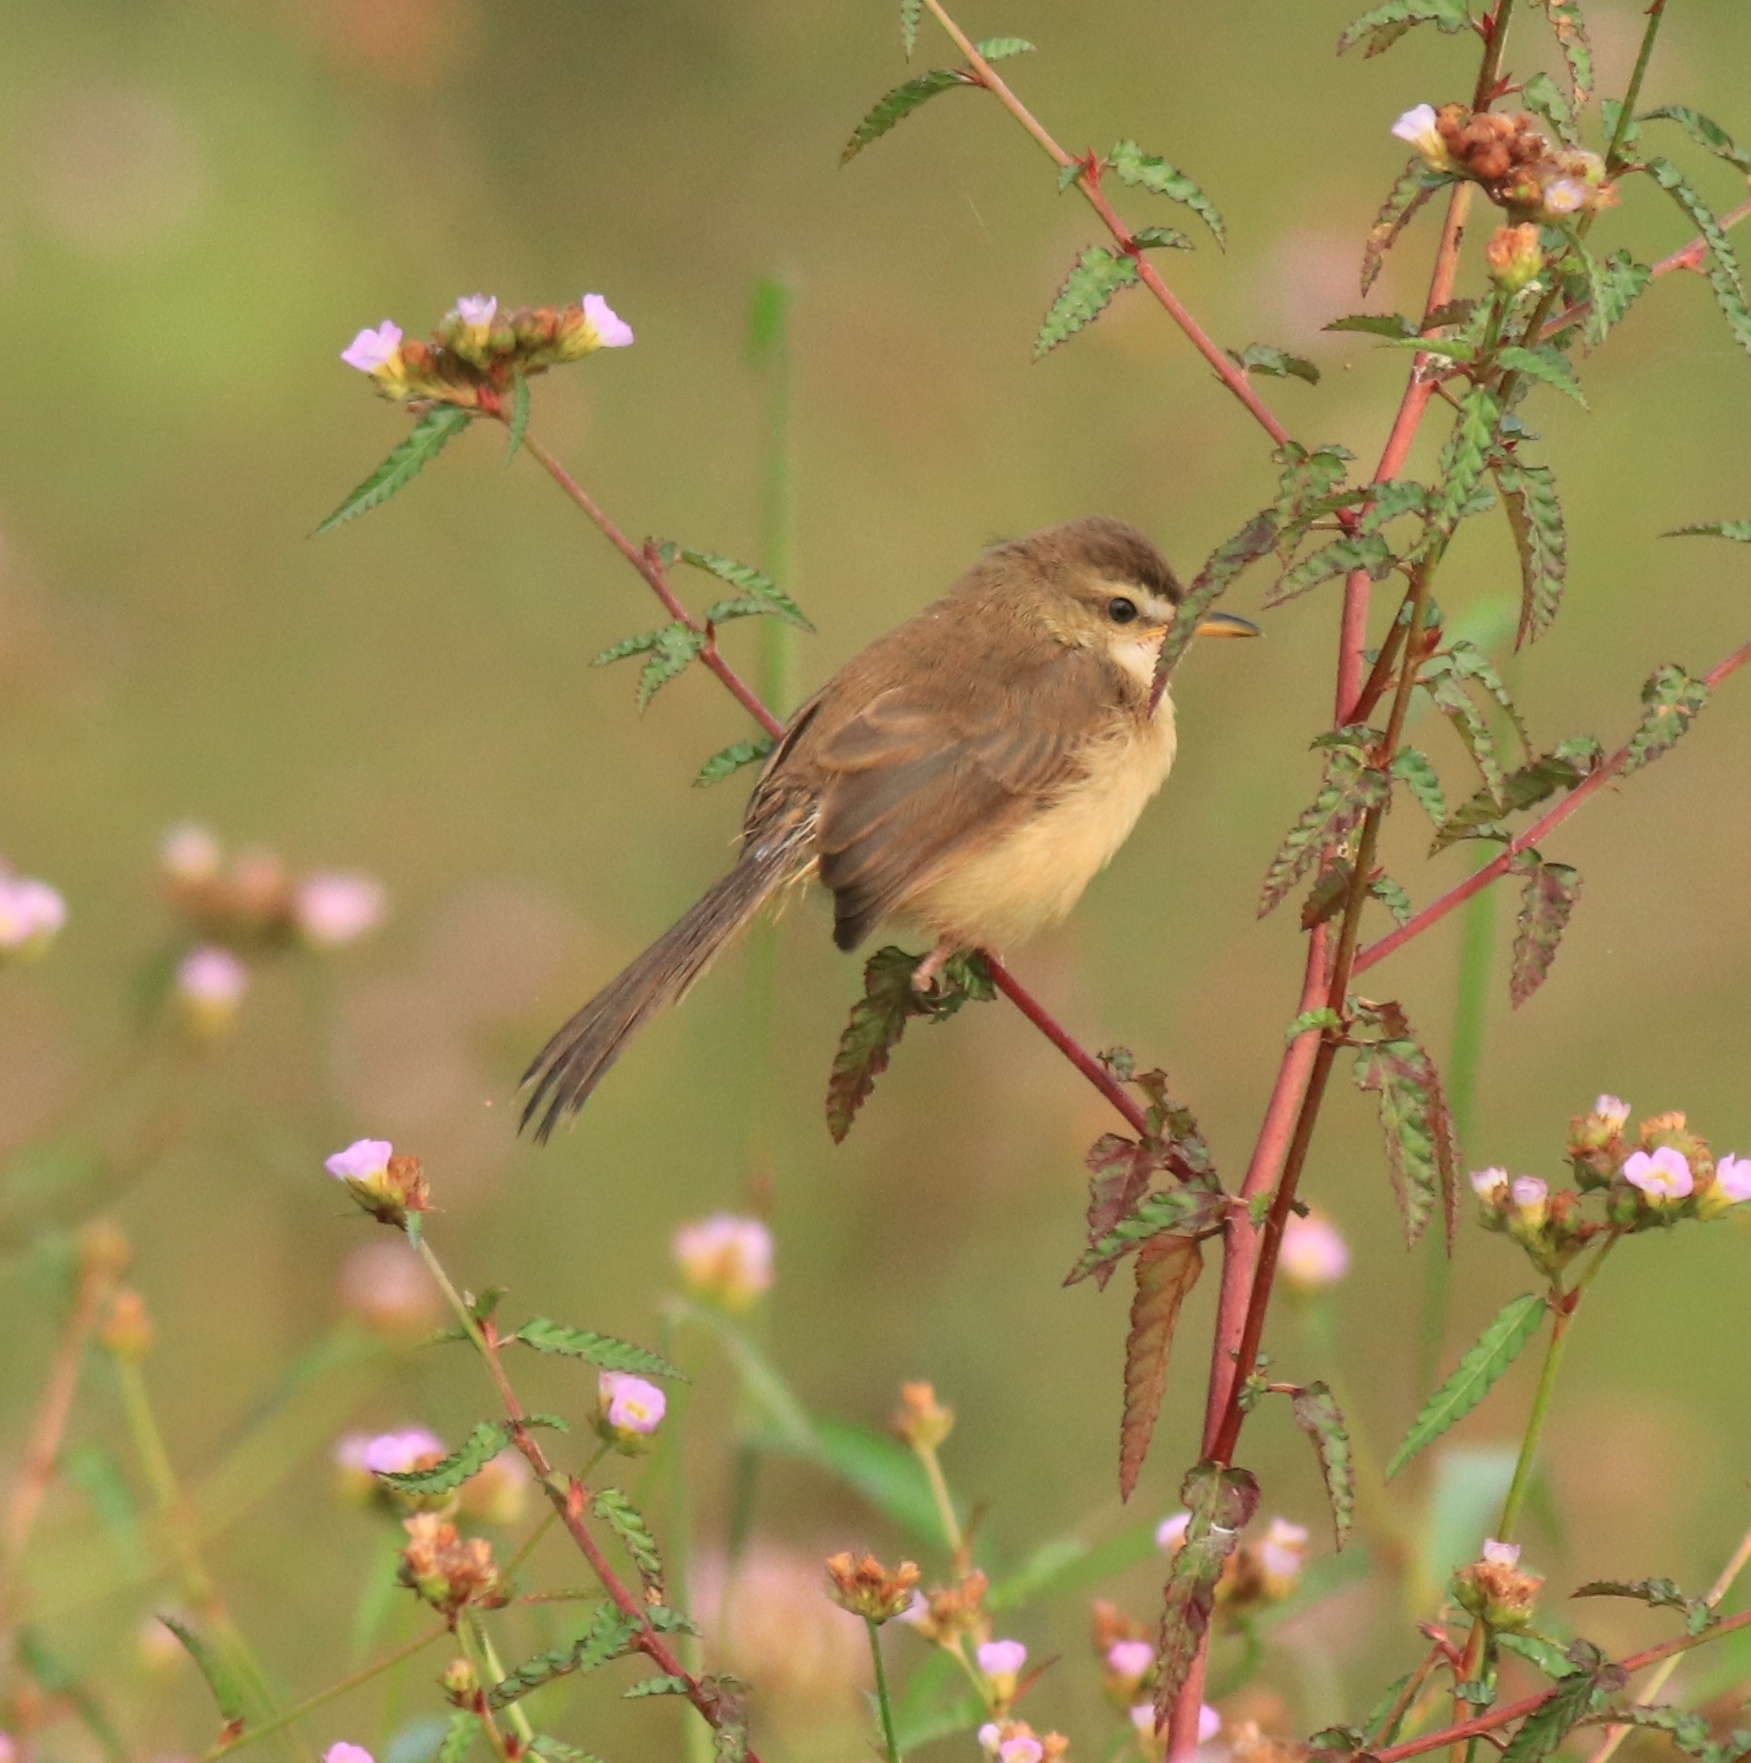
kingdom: Animalia
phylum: Chordata
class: Aves
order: Passeriformes
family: Cisticolidae
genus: Prinia
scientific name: Prinia inornata
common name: Plain prinia
